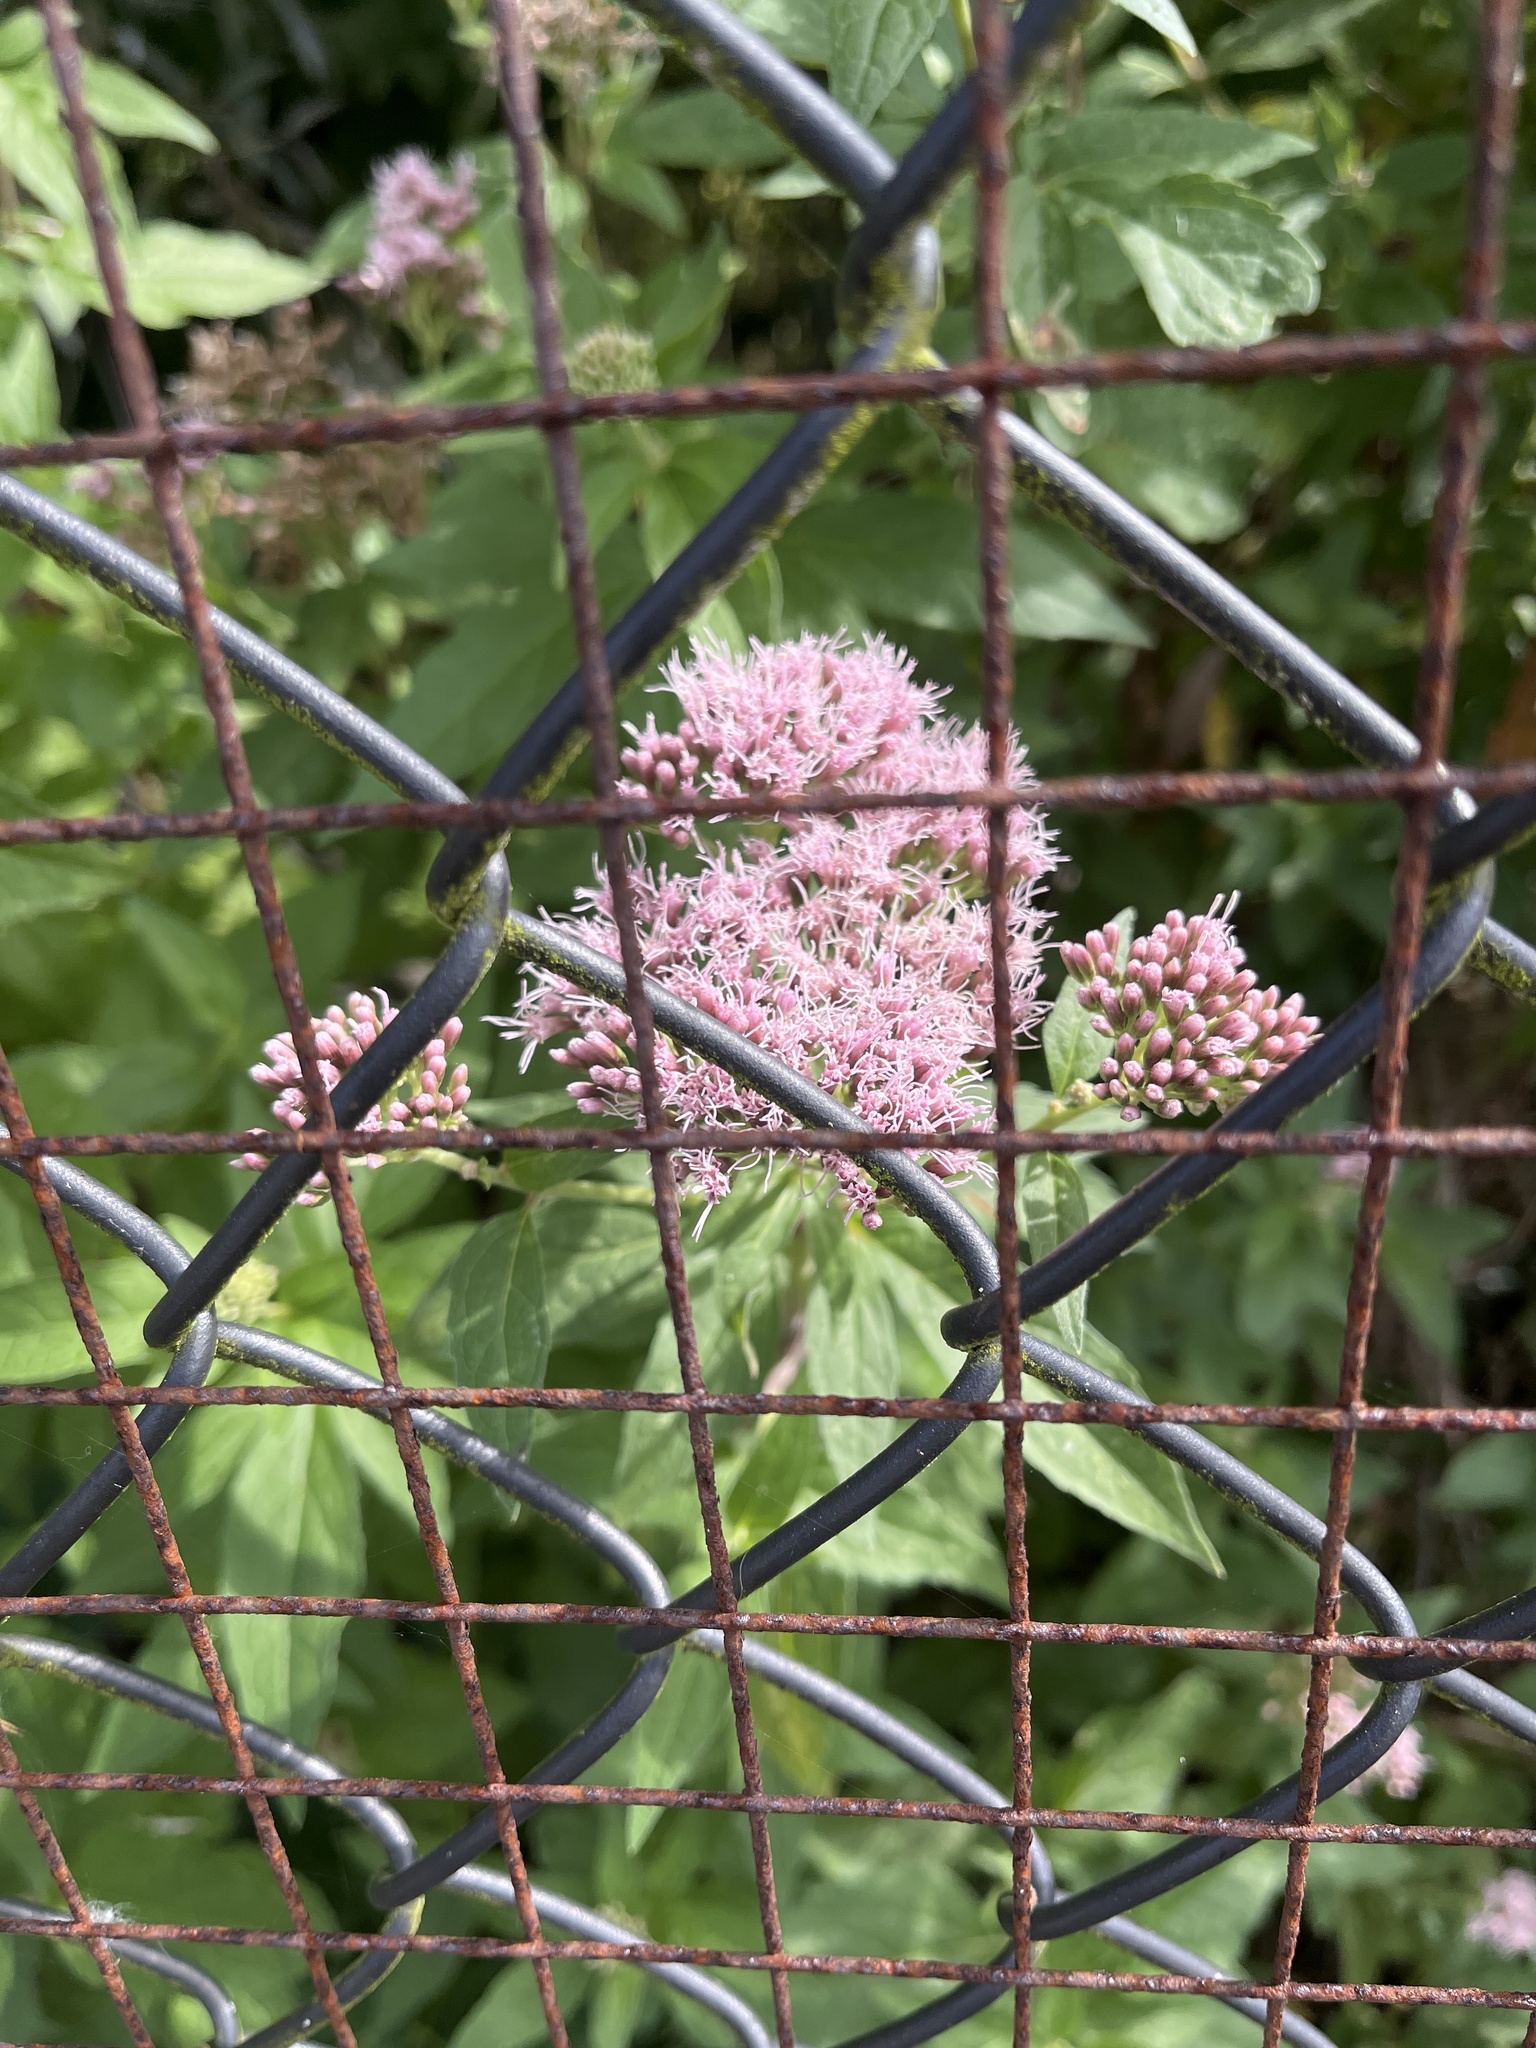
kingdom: Plantae
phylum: Tracheophyta
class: Magnoliopsida
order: Asterales
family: Asteraceae
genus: Eupatorium
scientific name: Eupatorium cannabinum
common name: Hemp-agrimony
